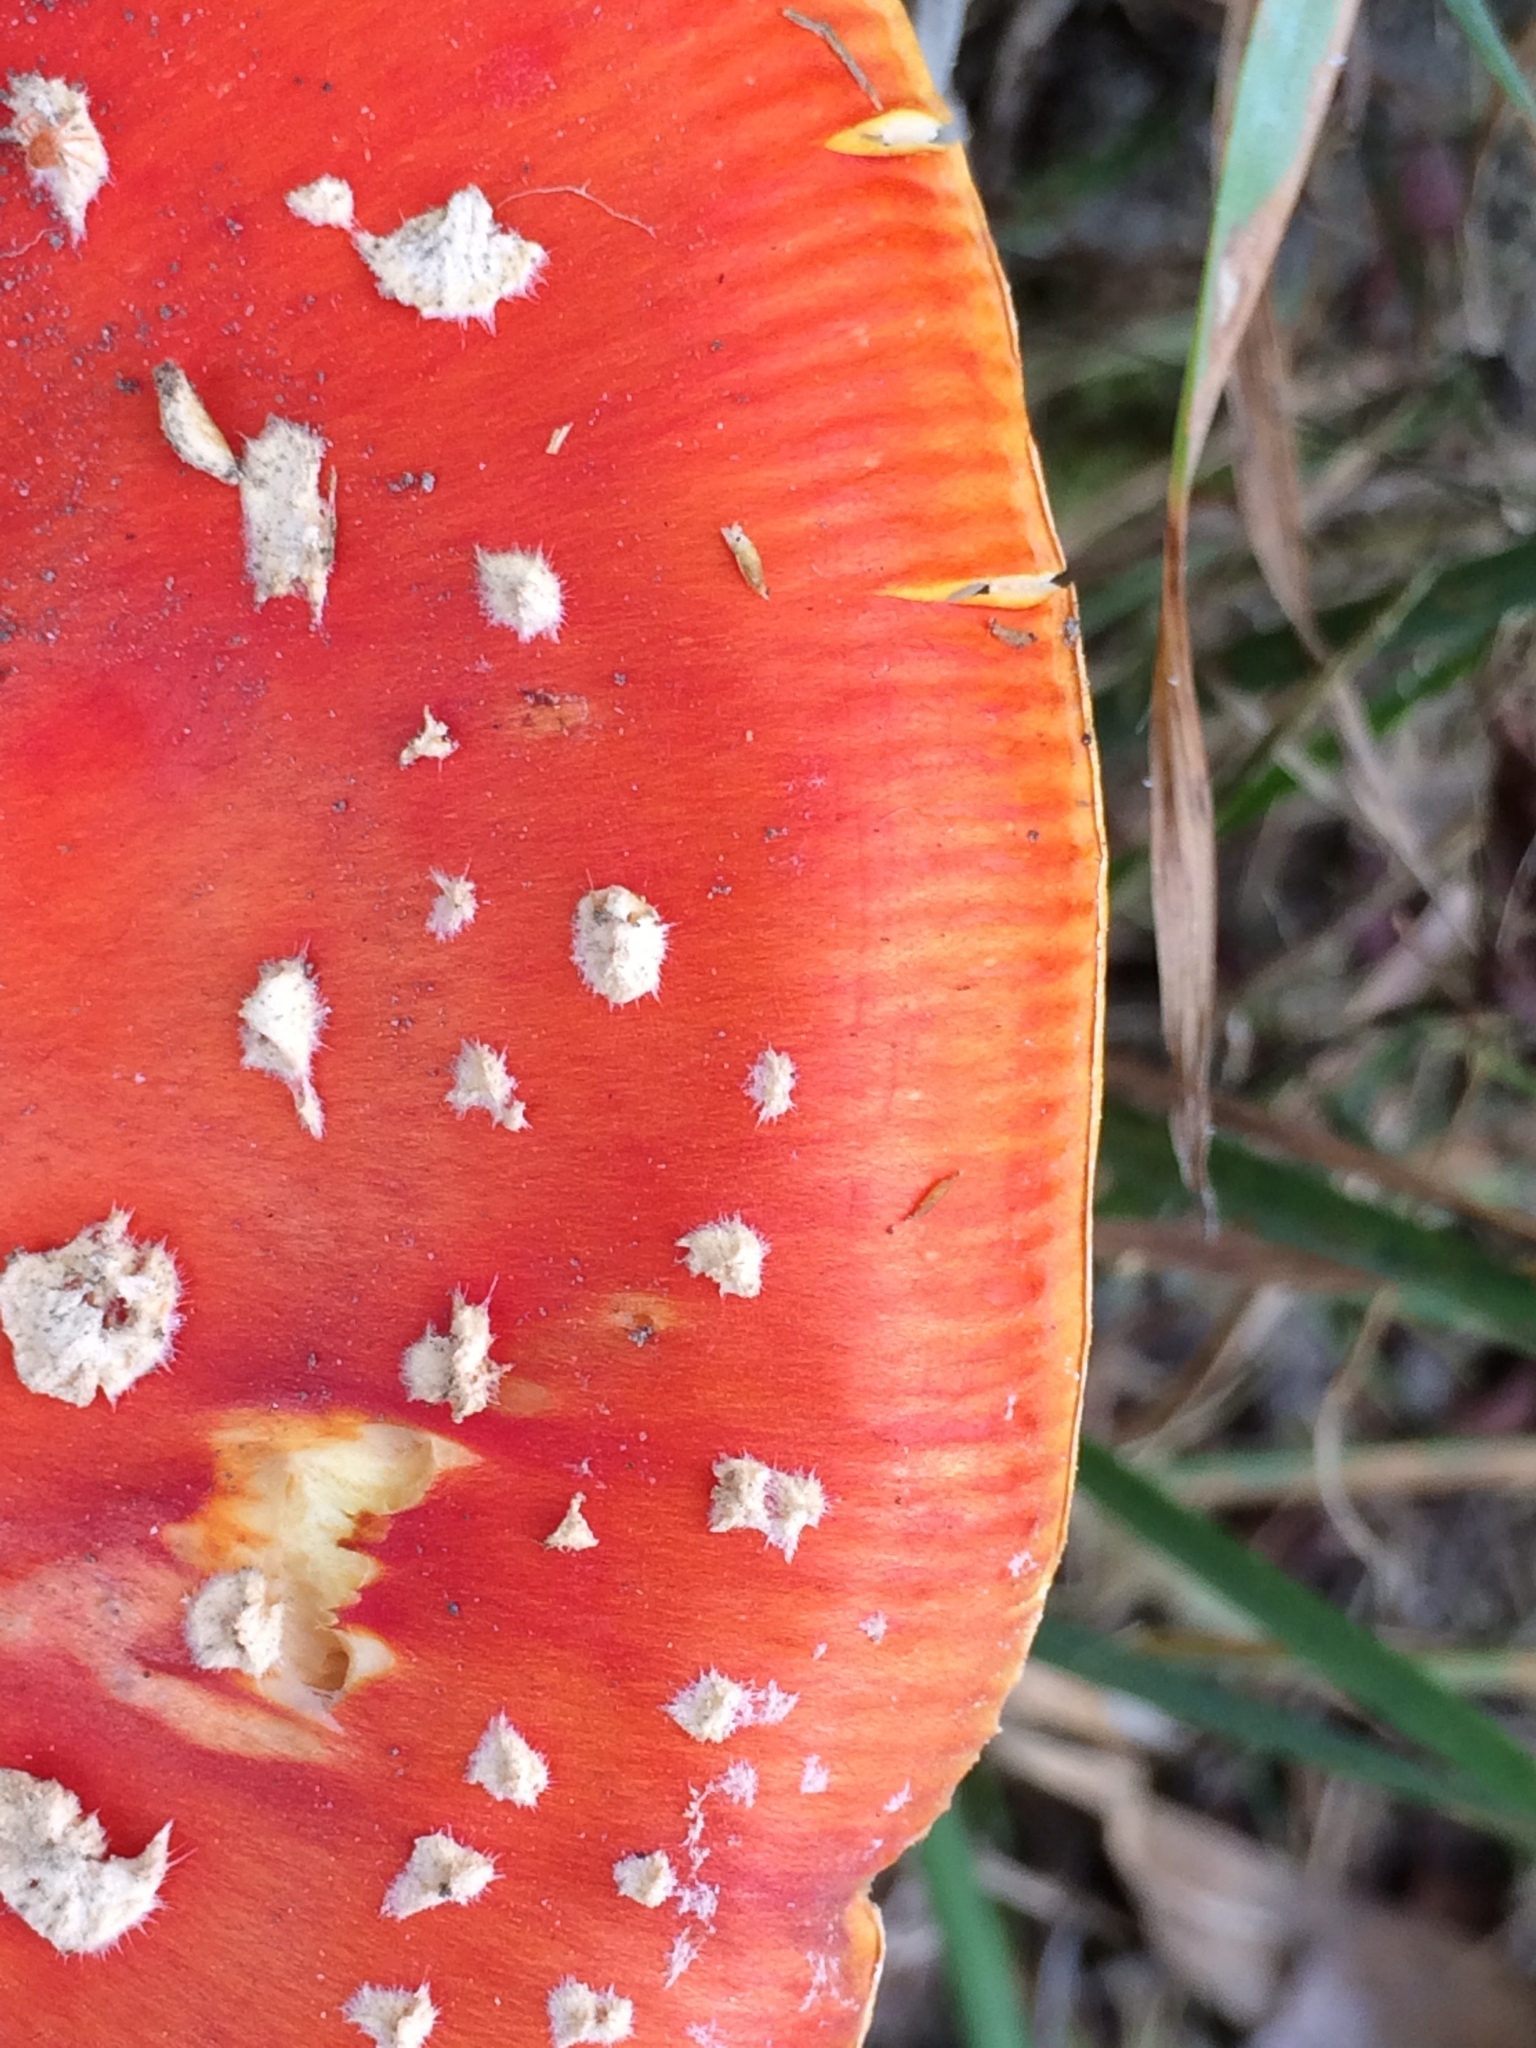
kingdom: Fungi
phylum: Basidiomycota
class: Agaricomycetes
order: Agaricales
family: Amanitaceae
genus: Amanita
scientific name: Amanita muscaria
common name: Fly agaric
